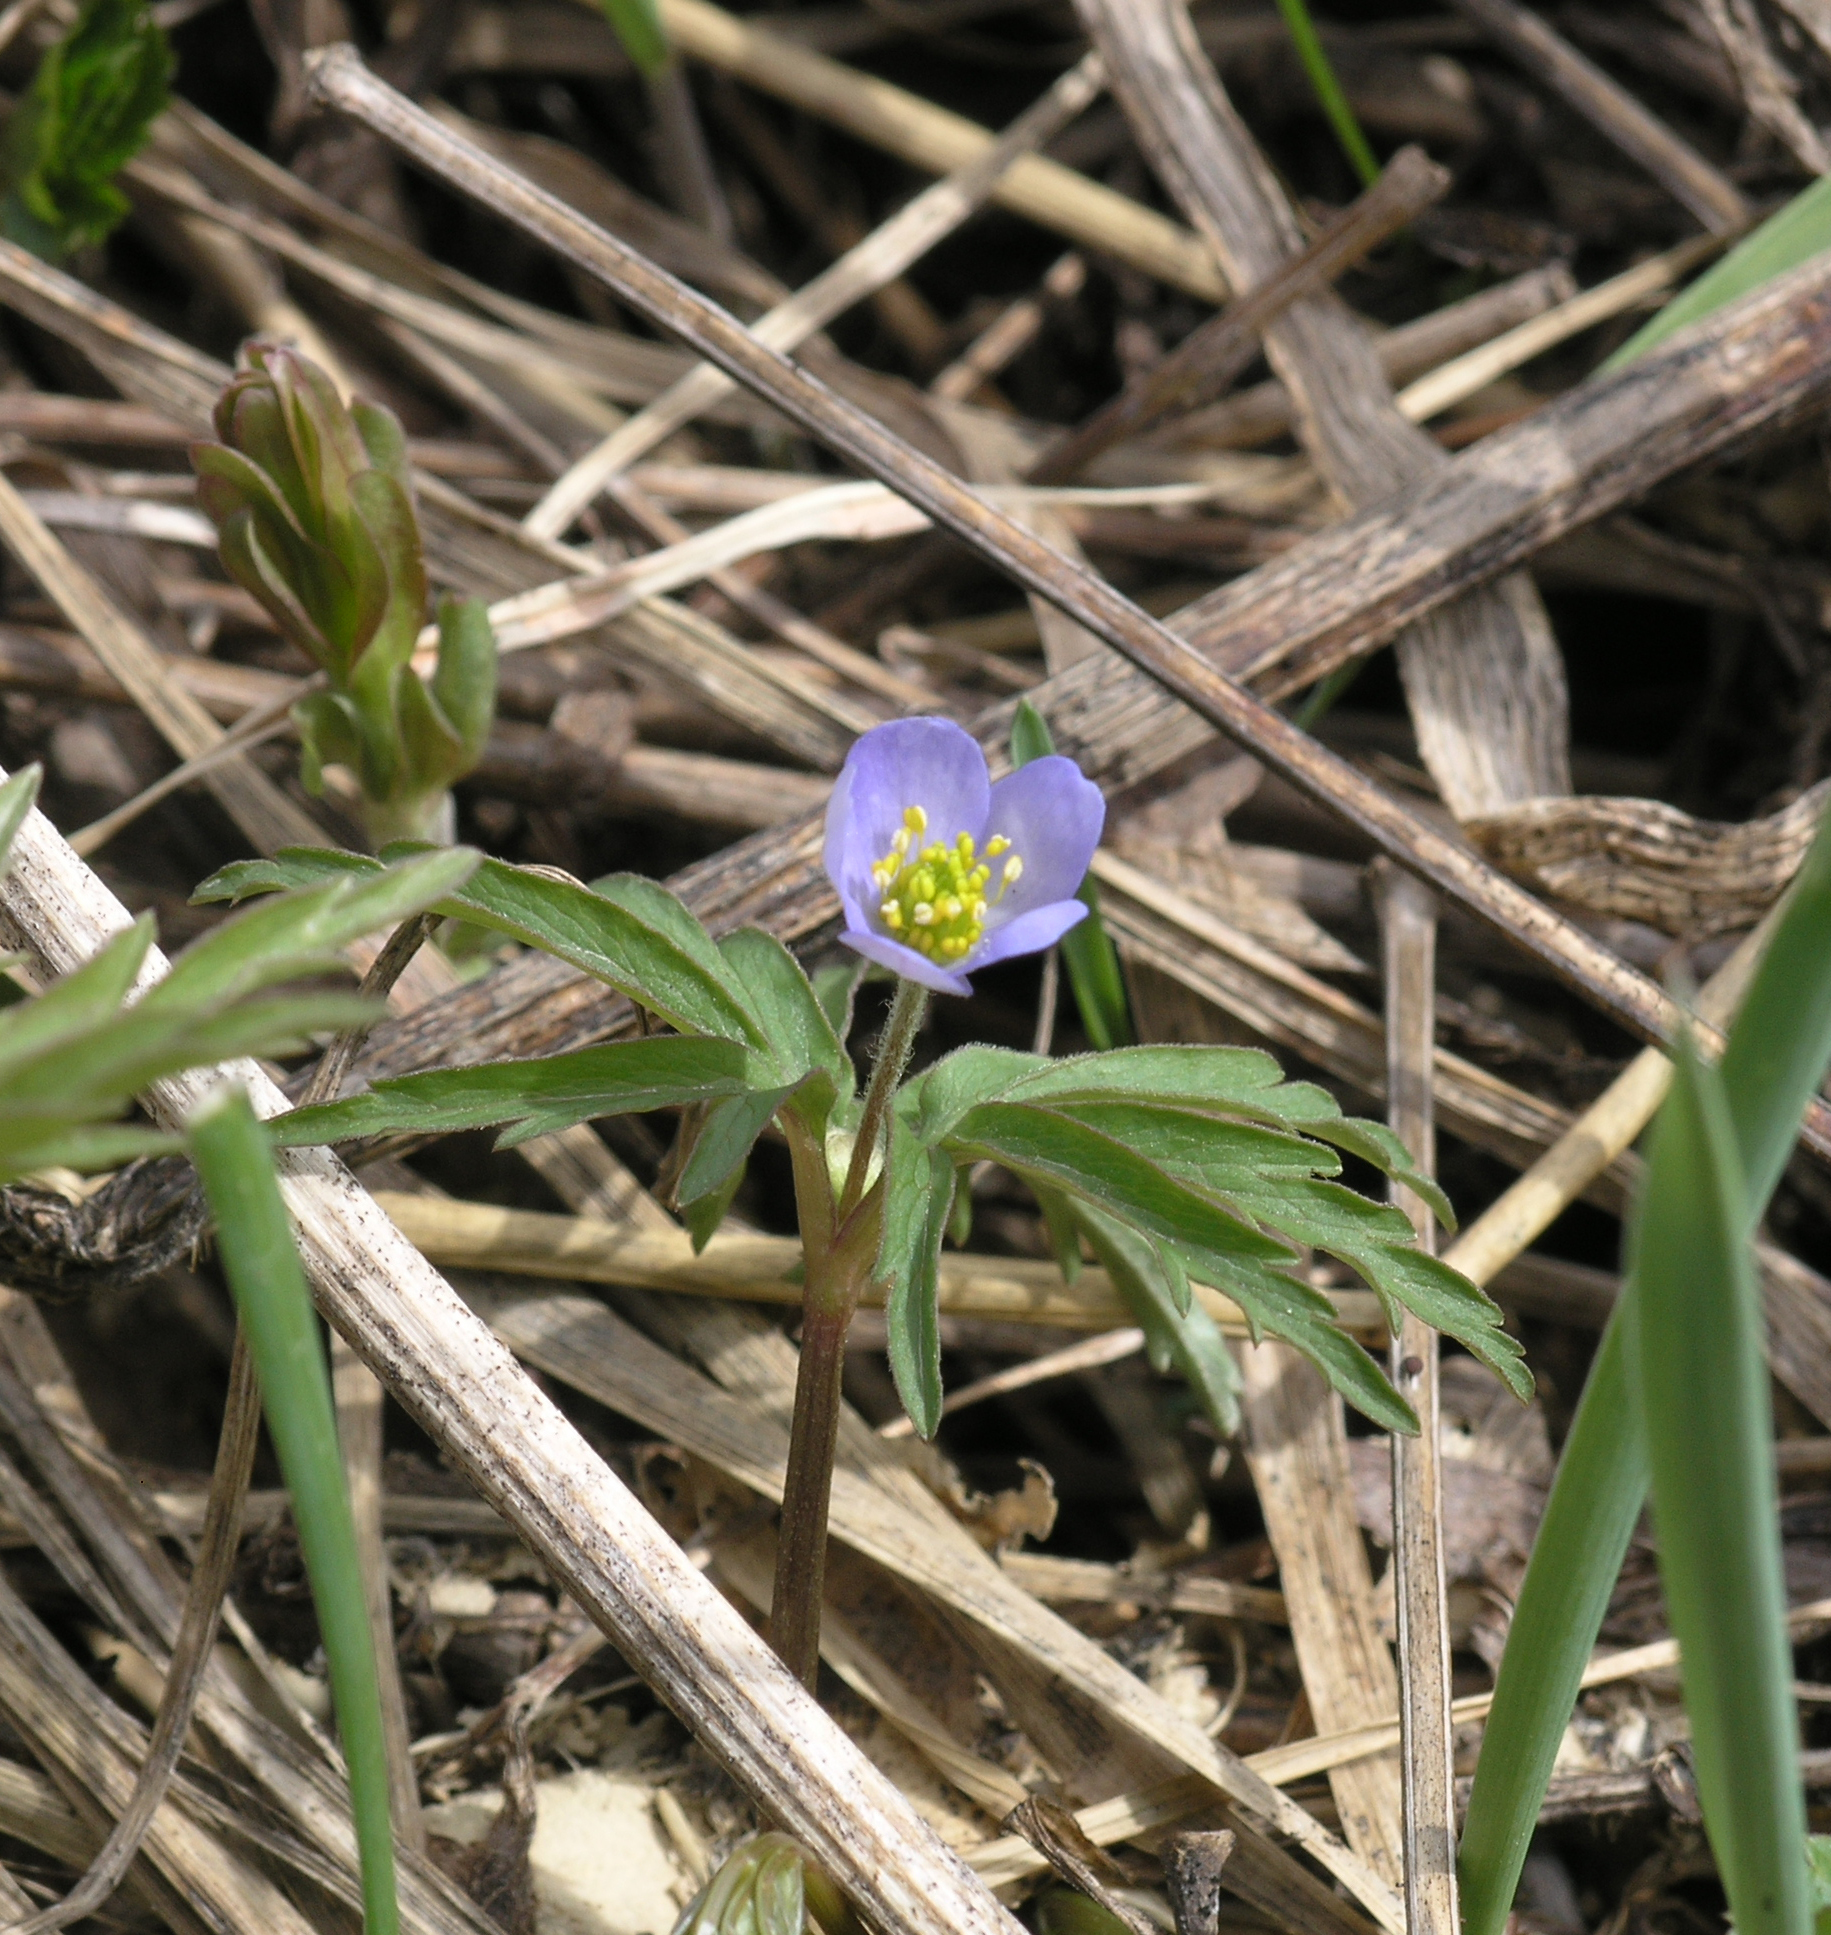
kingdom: Plantae
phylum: Tracheophyta
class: Magnoliopsida
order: Ranunculales
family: Ranunculaceae
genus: Anemone
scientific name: Anemone caerulea
